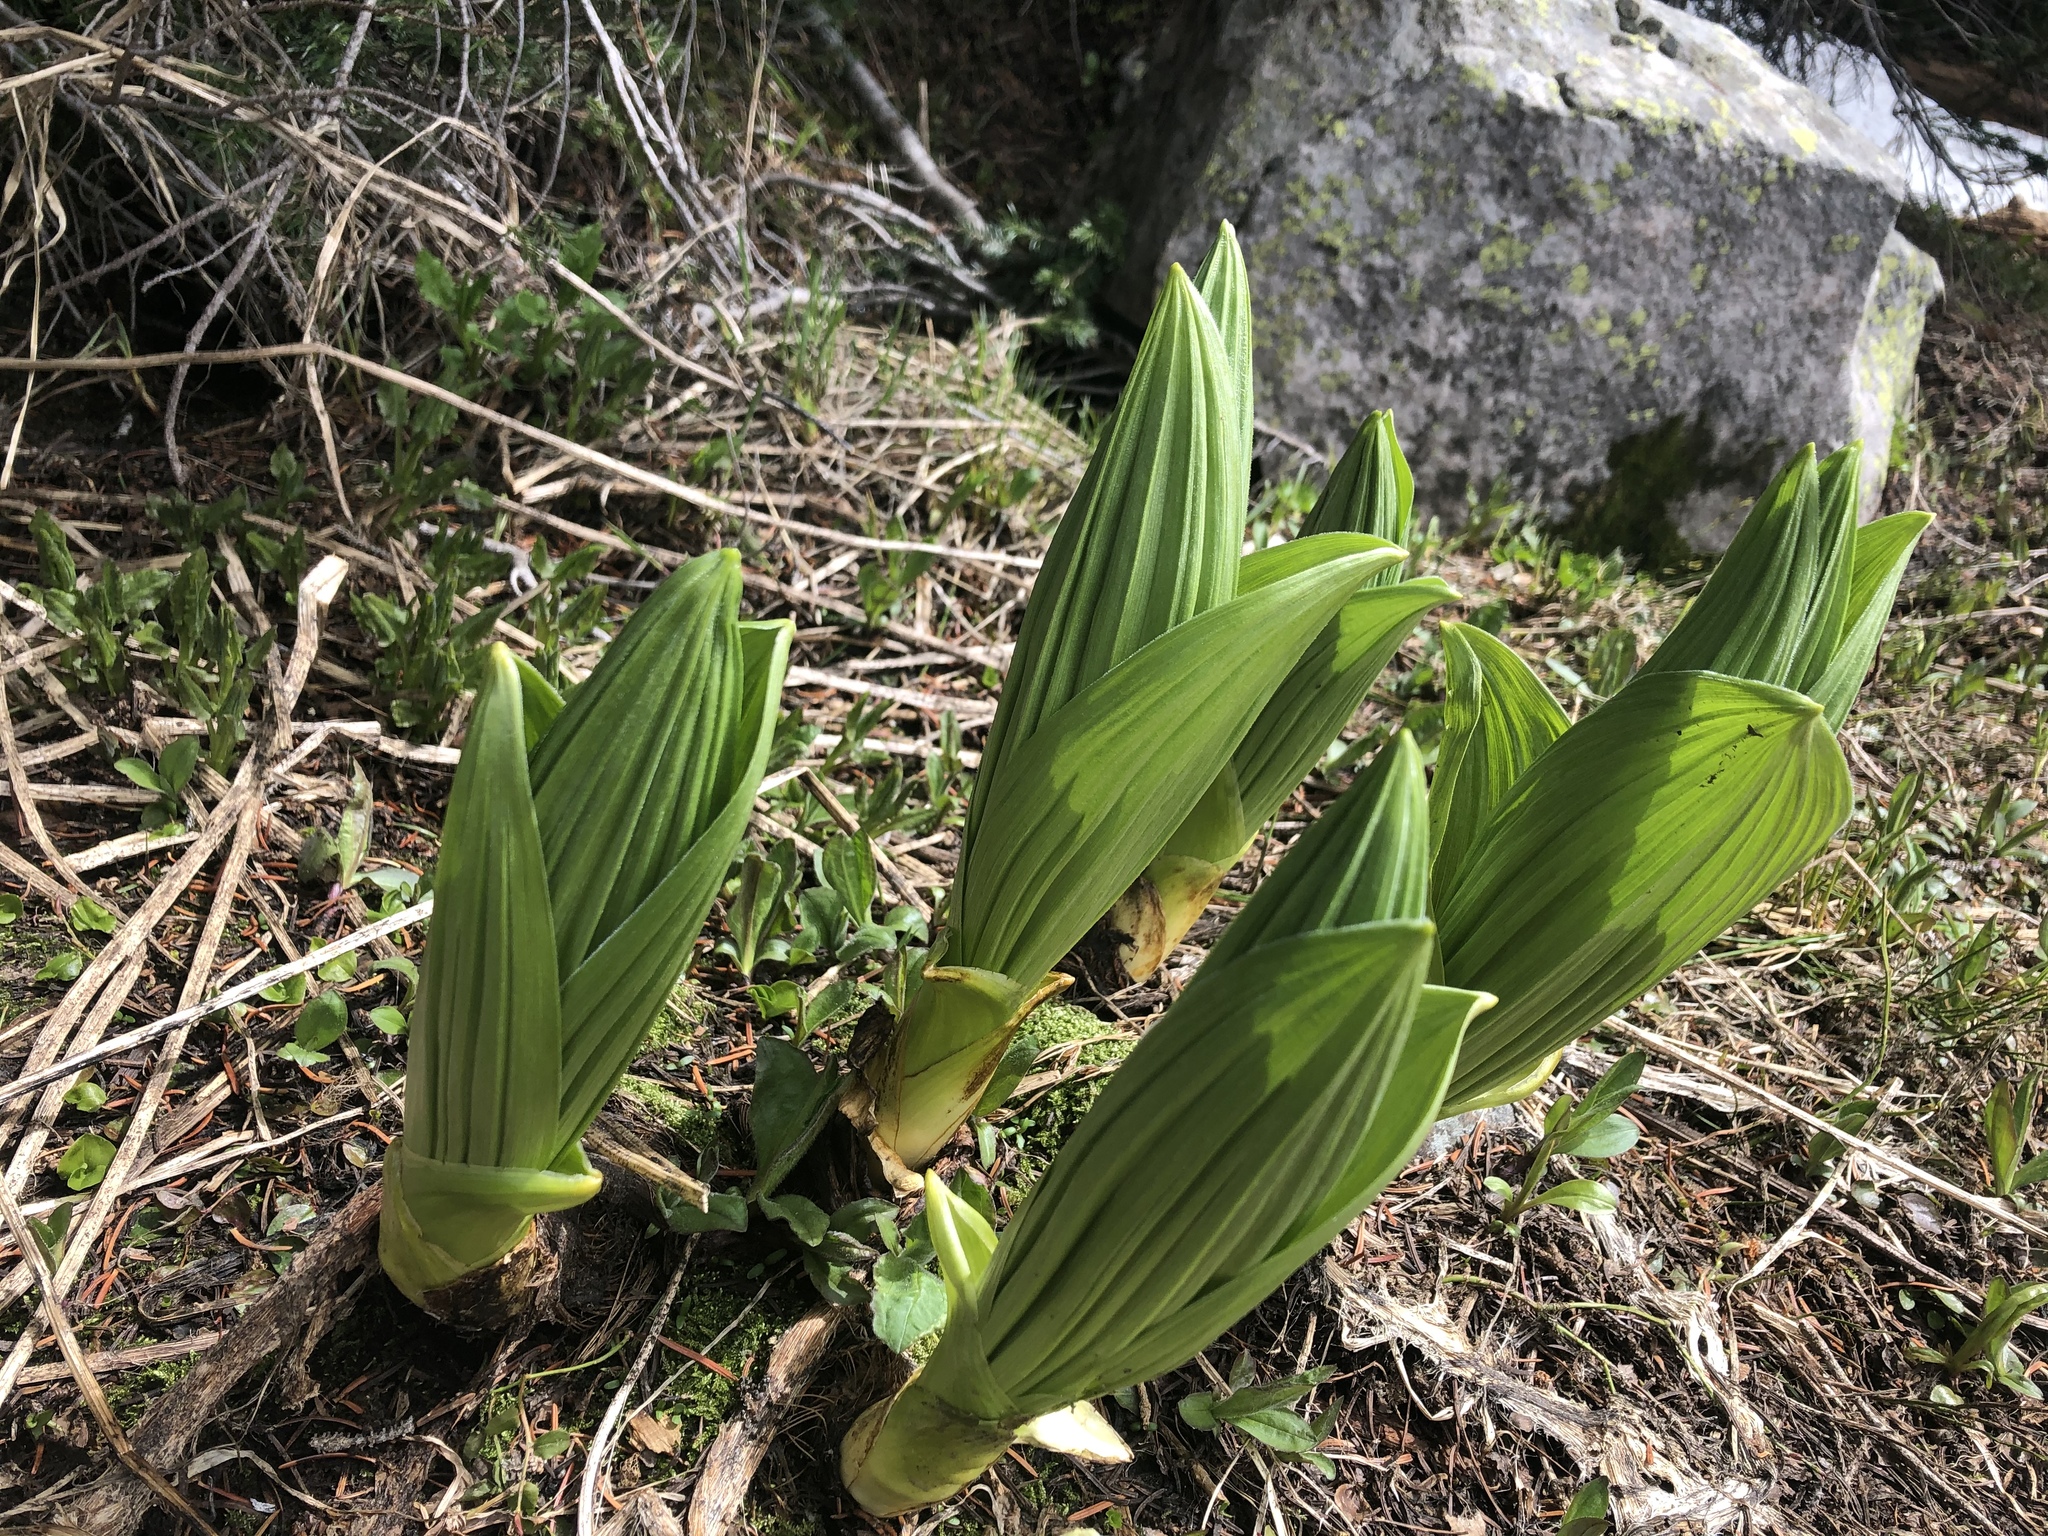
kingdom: Plantae
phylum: Tracheophyta
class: Liliopsida
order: Liliales
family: Melanthiaceae
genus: Veratrum
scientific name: Veratrum californicum
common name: California veratrum
